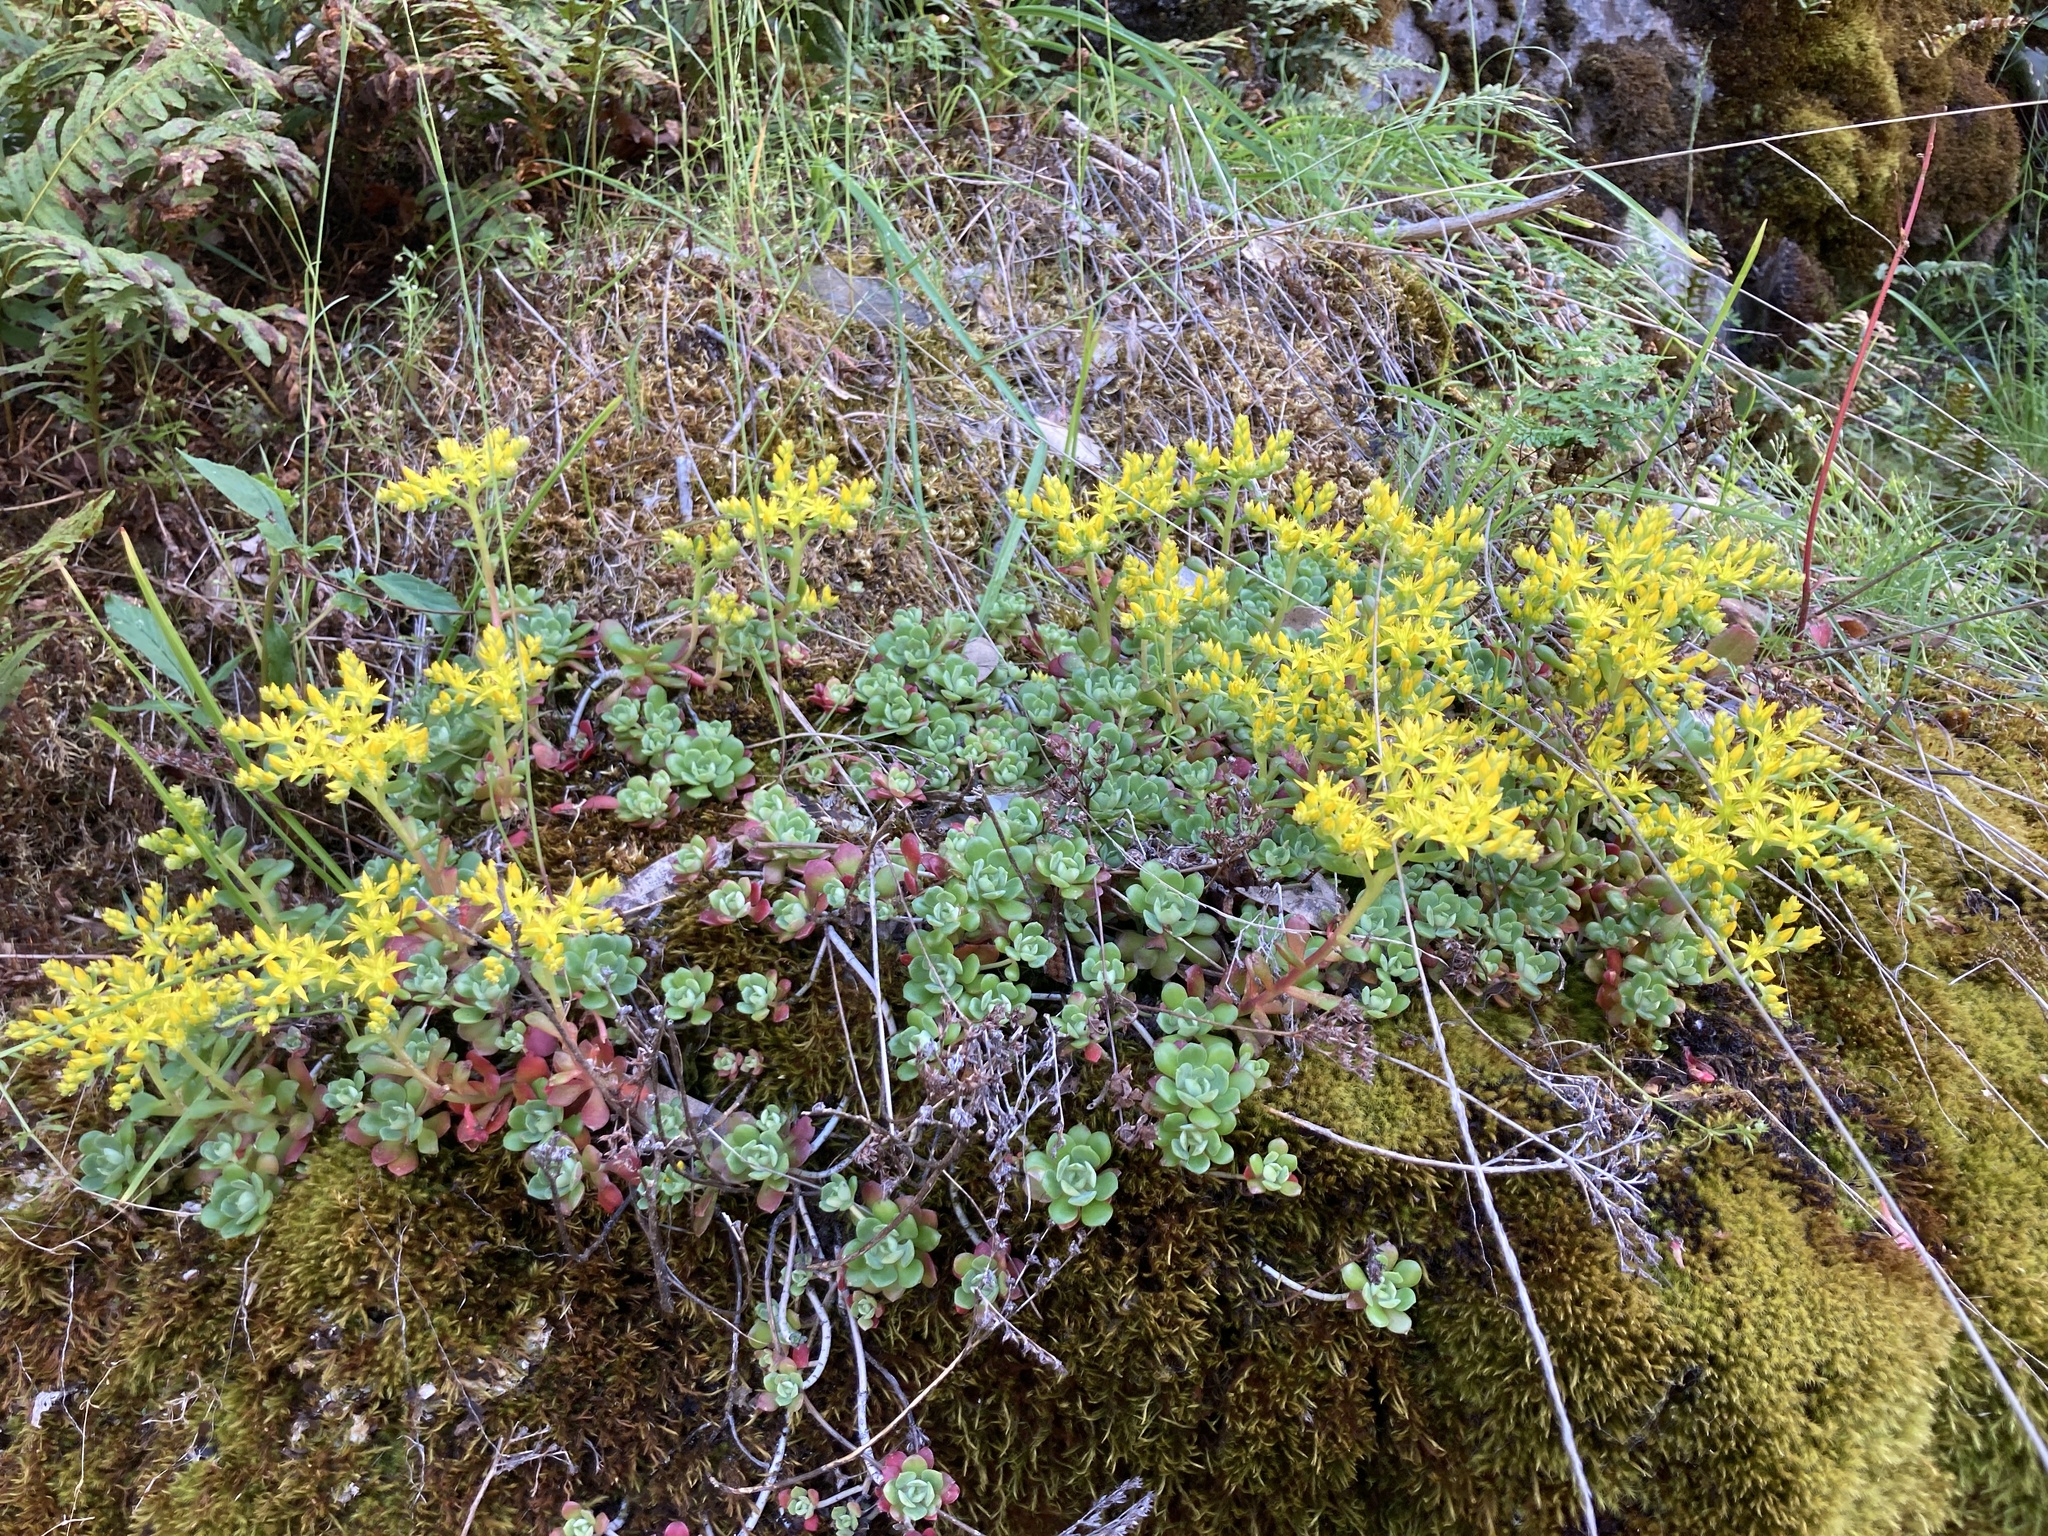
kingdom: Plantae
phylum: Tracheophyta
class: Magnoliopsida
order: Saxifragales
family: Crassulaceae
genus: Sedum
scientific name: Sedum spathulifolium
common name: Colorado stonecrop
